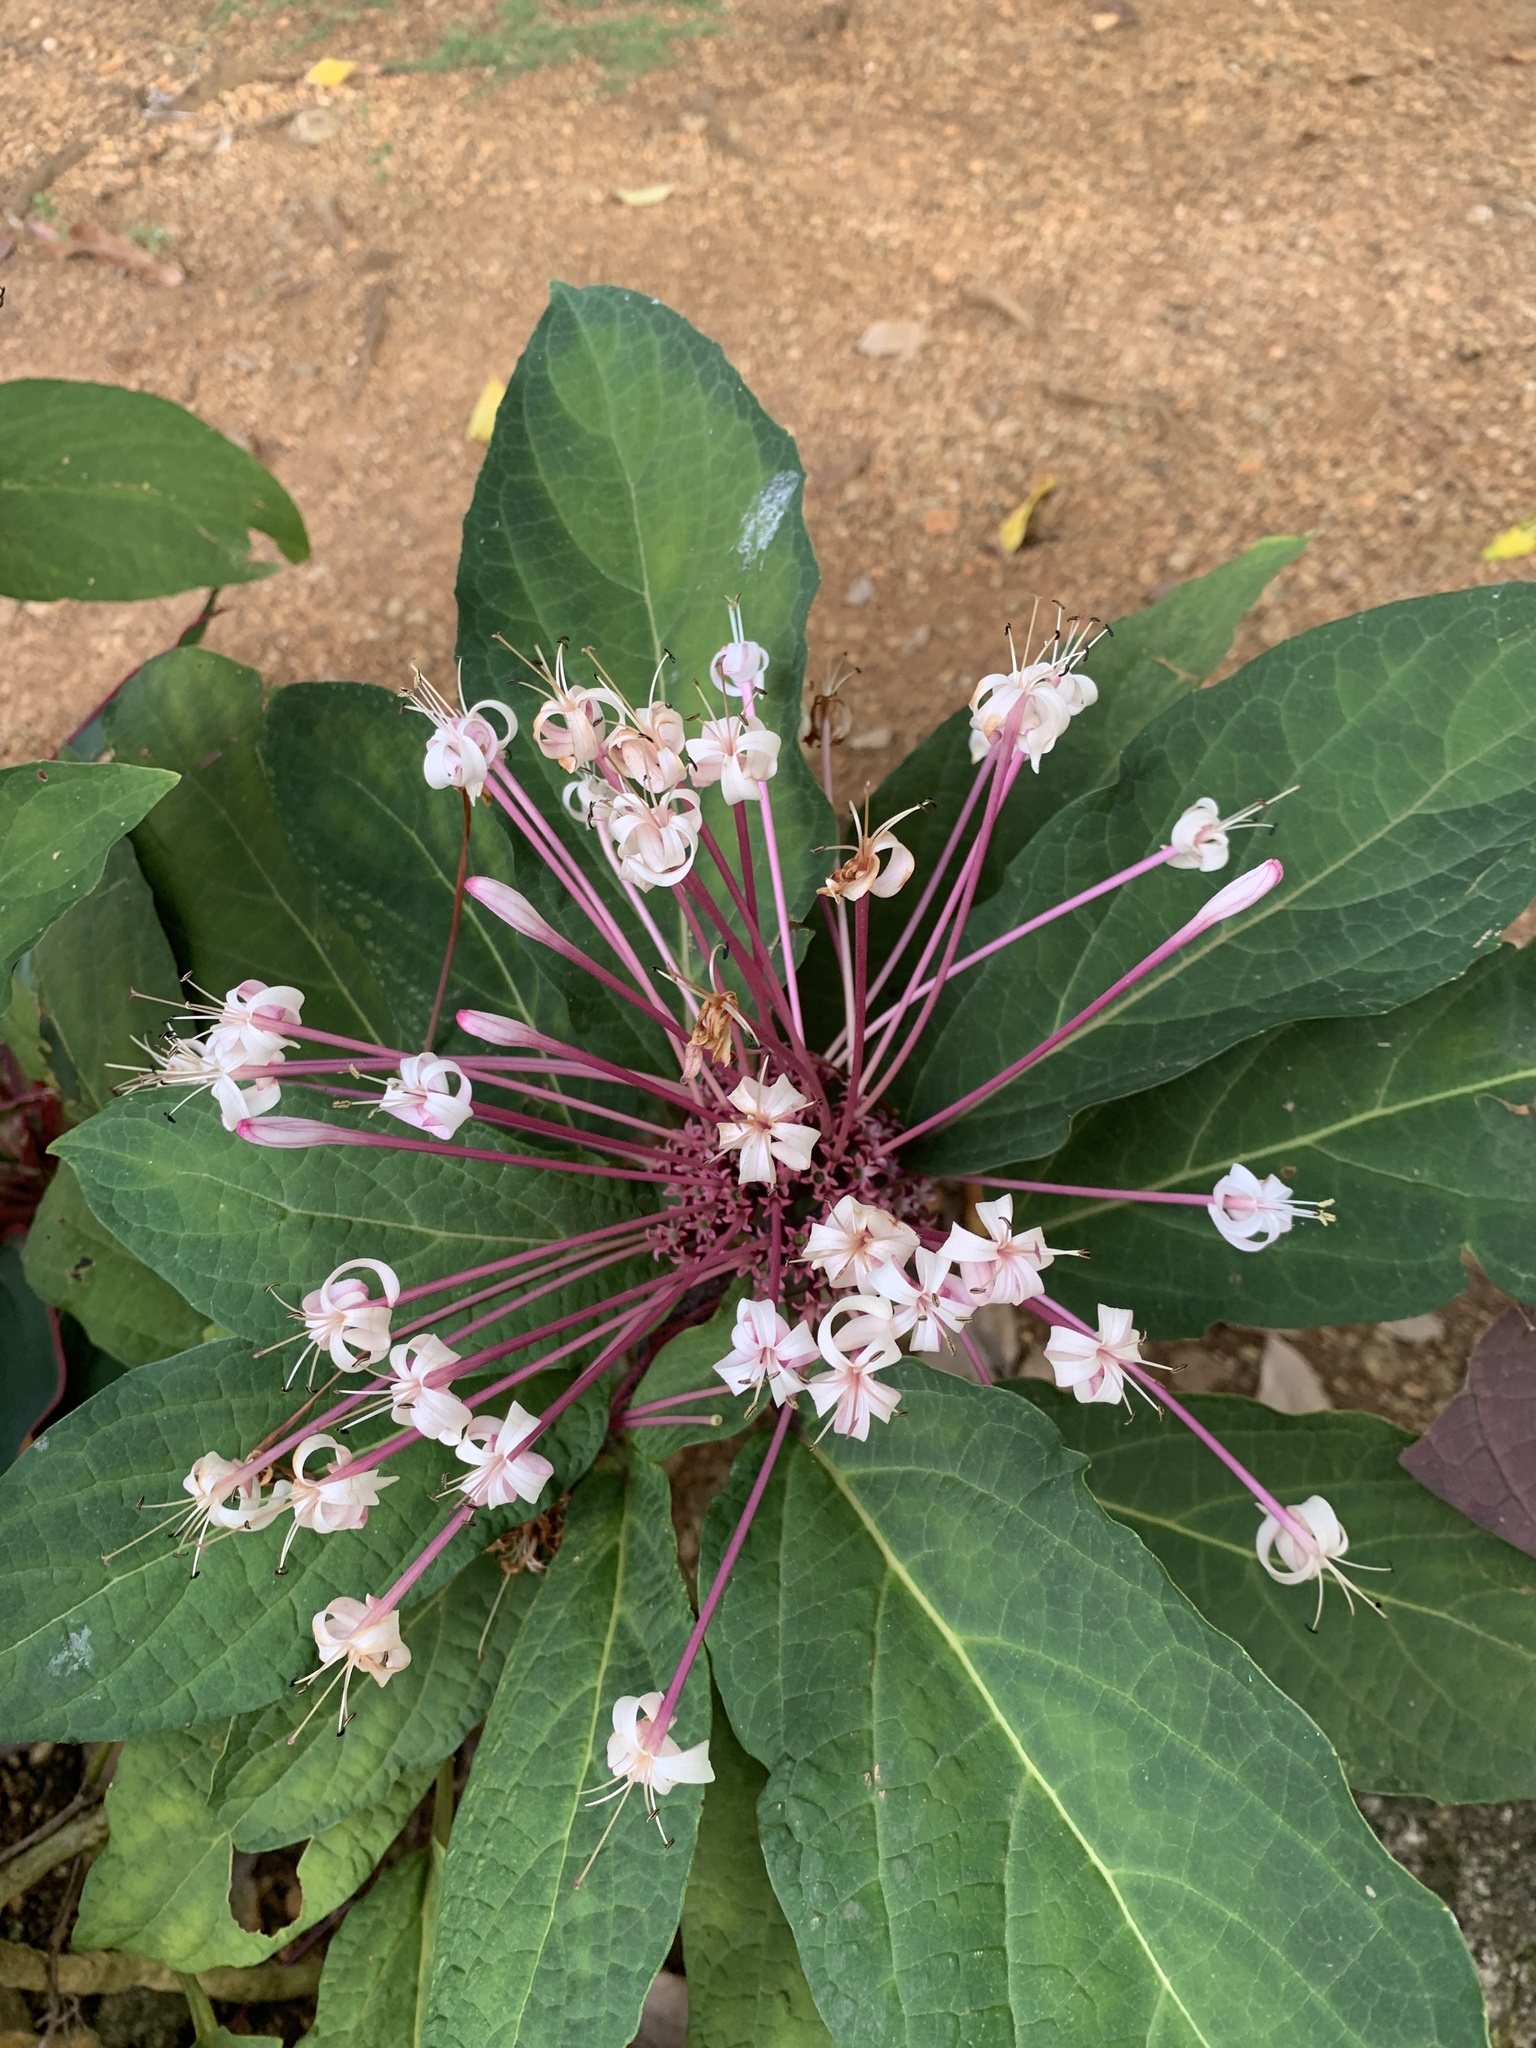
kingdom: Plantae
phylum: Tracheophyta
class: Magnoliopsida
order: Lamiales
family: Lamiaceae
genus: Clerodendrum
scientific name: Clerodendrum quadriloculare
